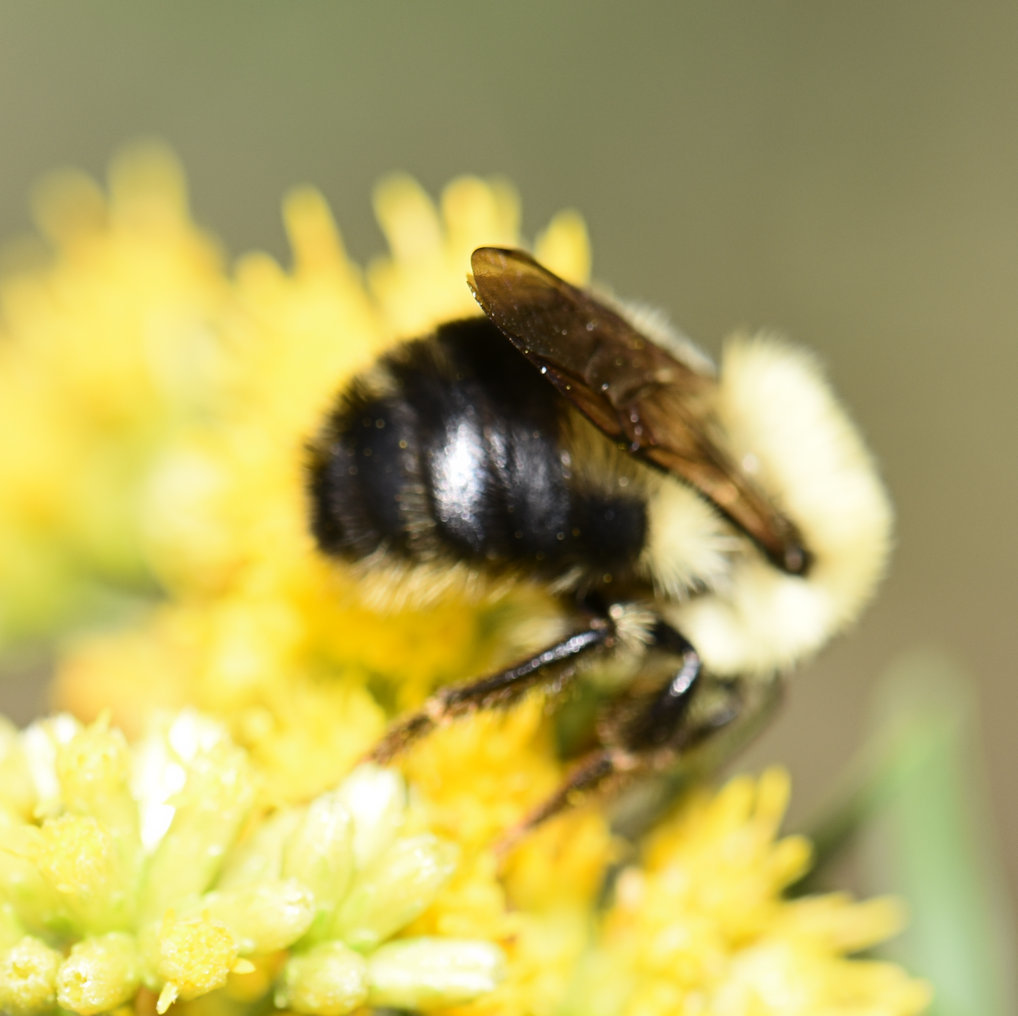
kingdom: Animalia
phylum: Arthropoda
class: Insecta
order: Hymenoptera
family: Apidae
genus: Bombus
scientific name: Bombus bimaculatus
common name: Two-spotted bumble bee
